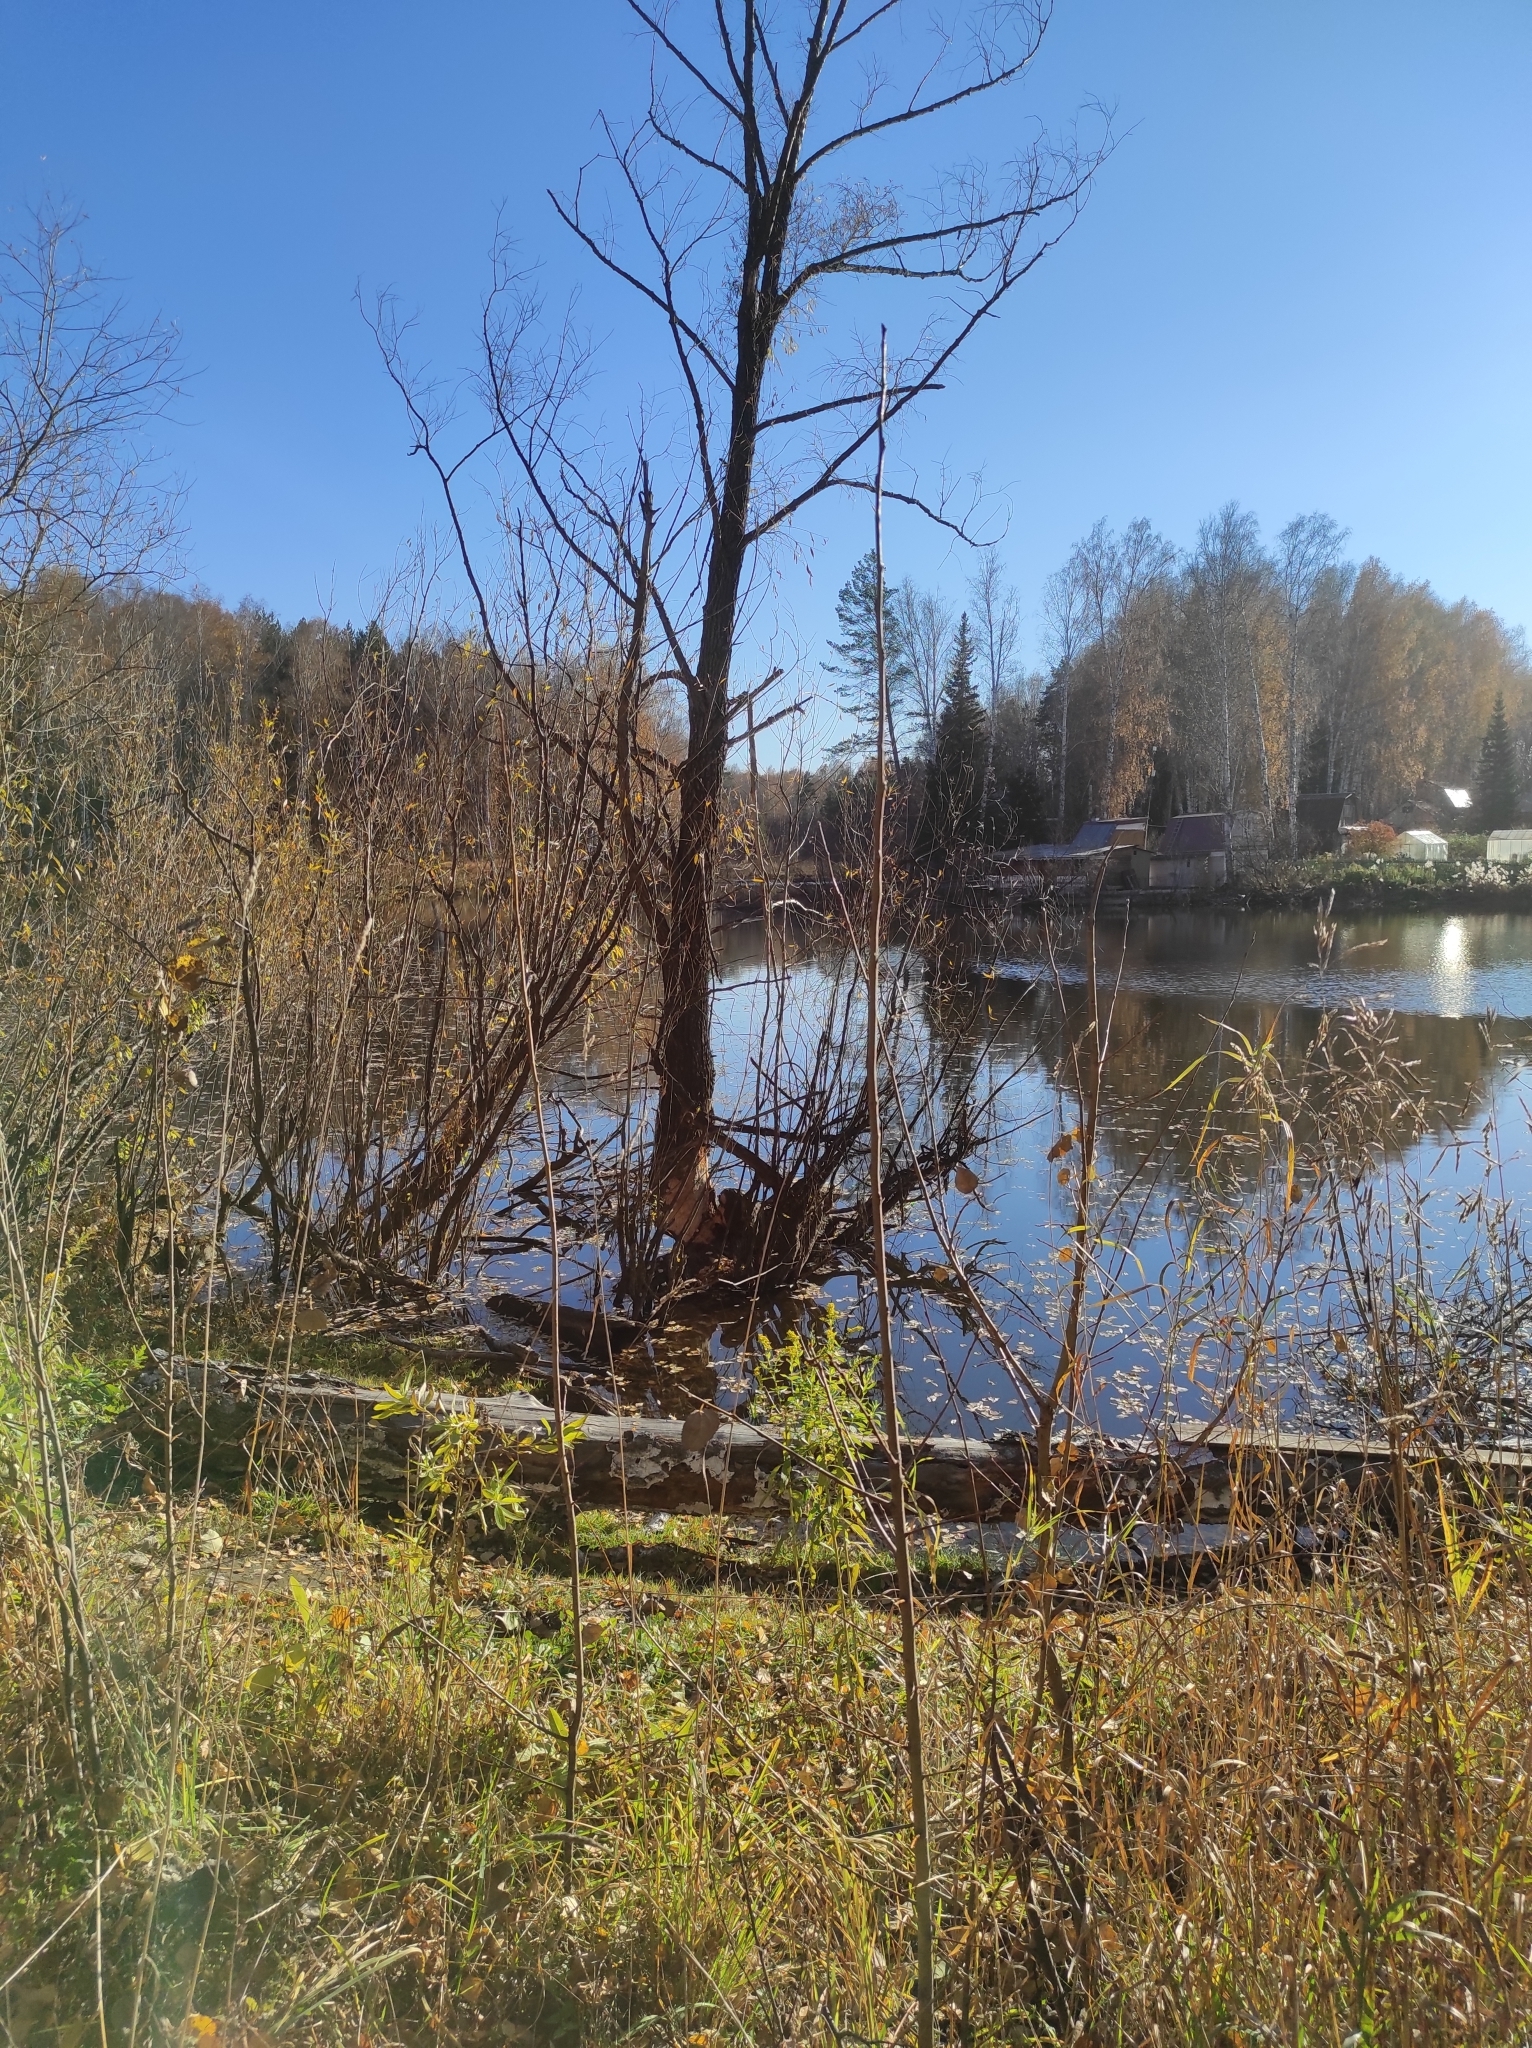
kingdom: Animalia
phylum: Chordata
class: Mammalia
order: Rodentia
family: Castoridae
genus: Castor
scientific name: Castor fiber
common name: Eurasian beaver
